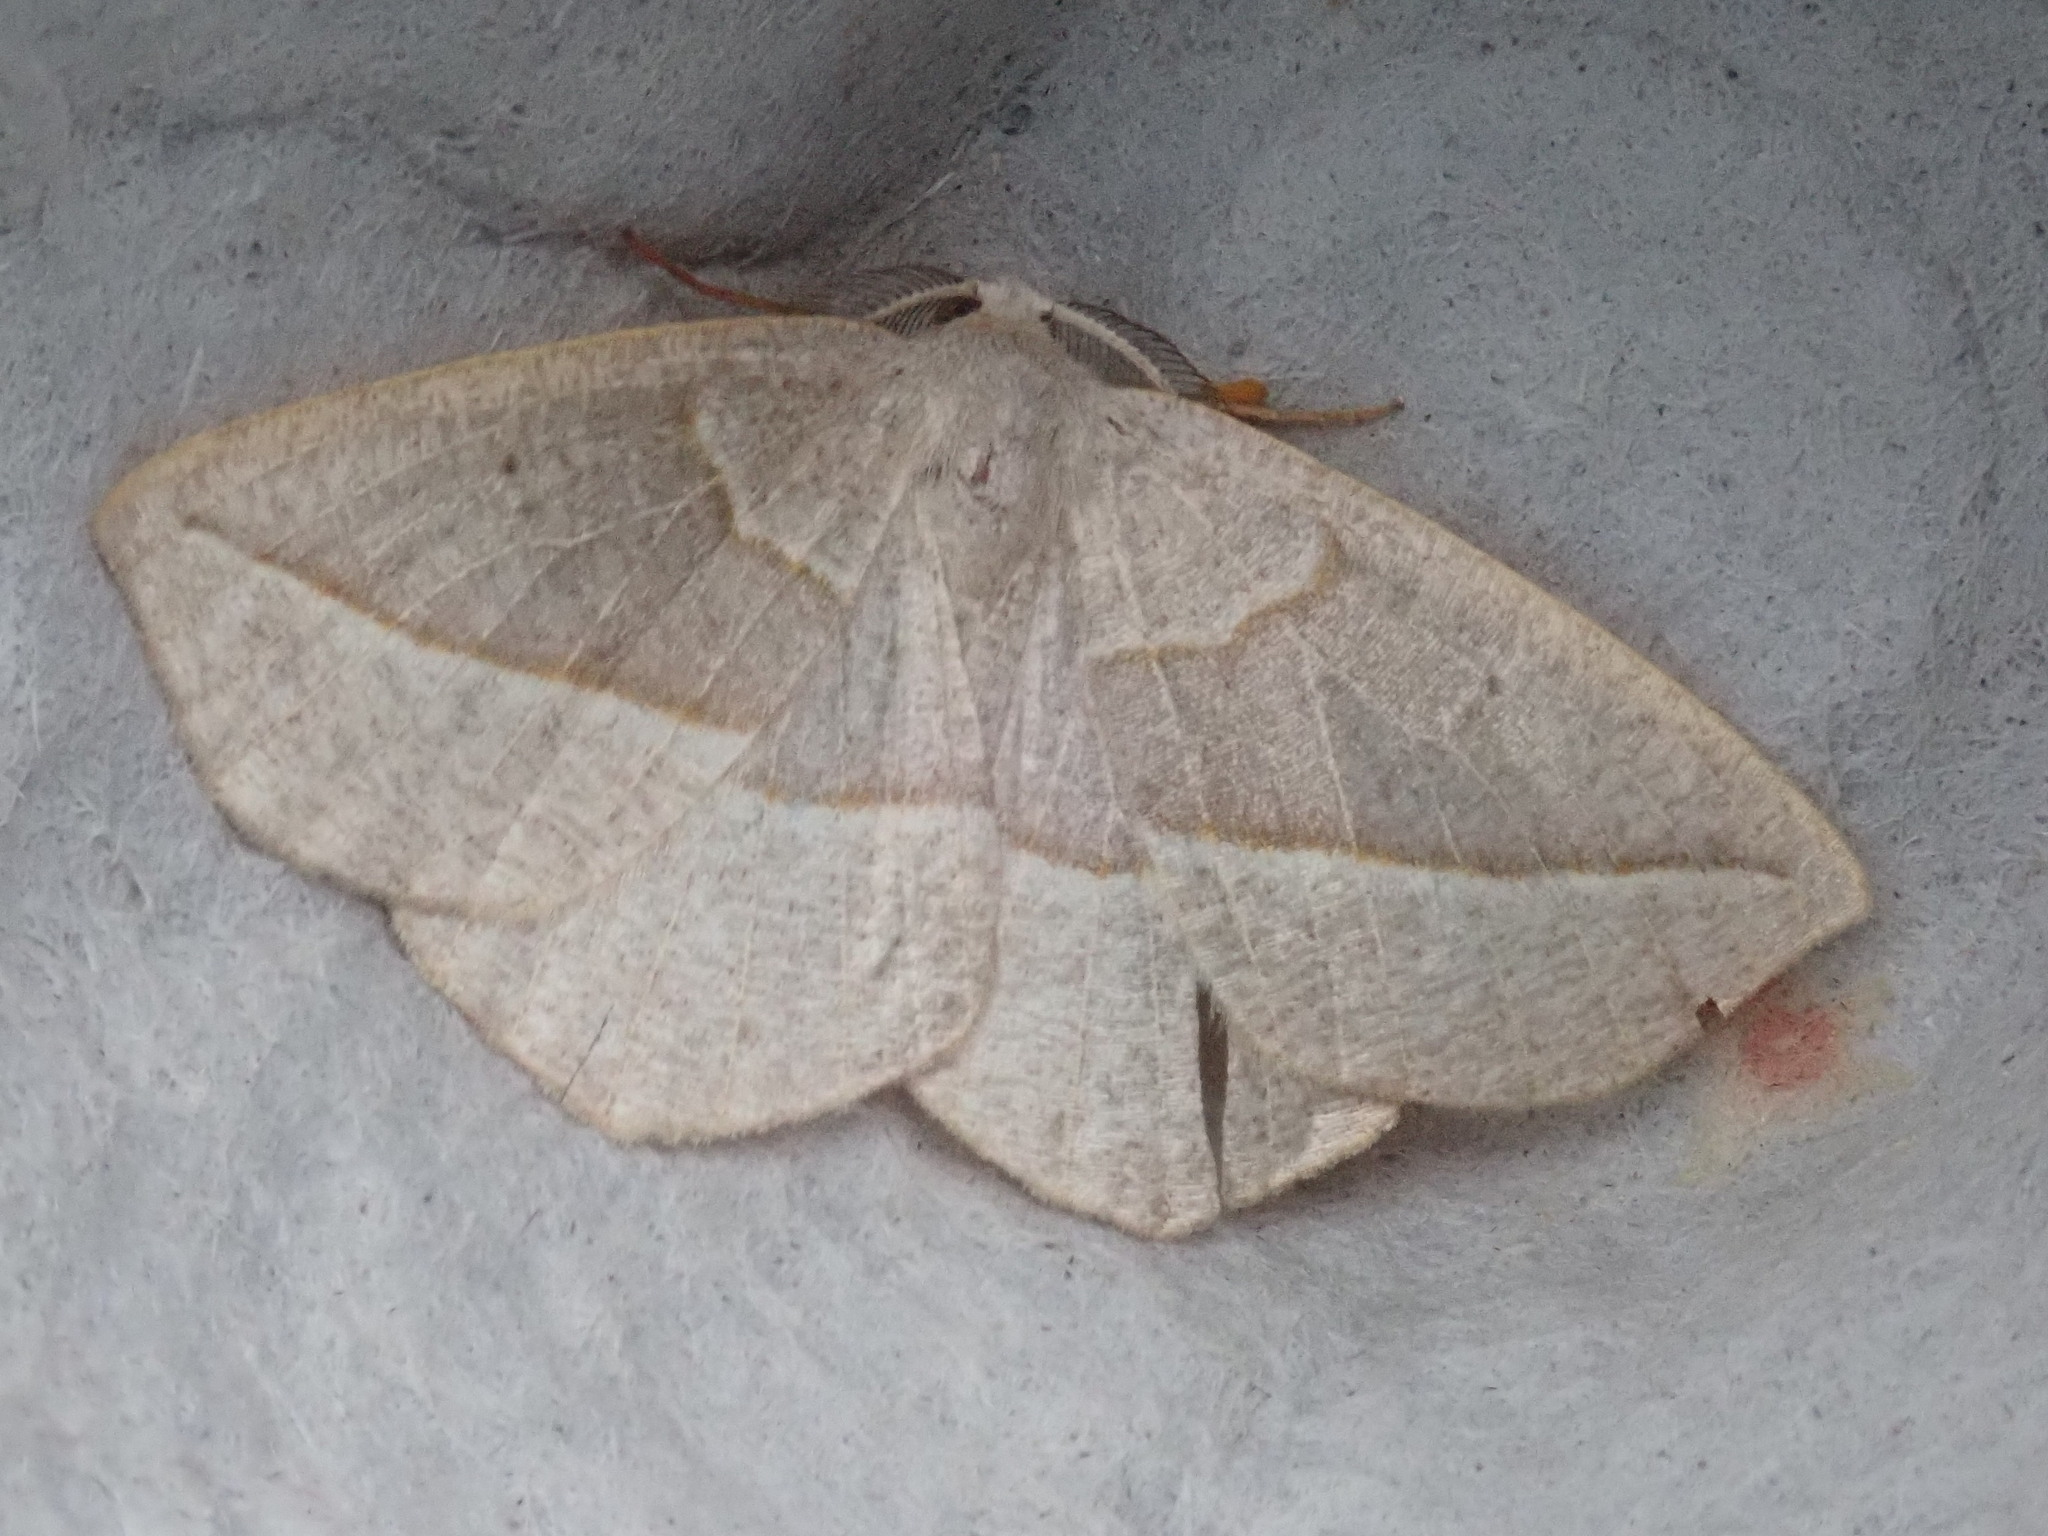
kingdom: Animalia
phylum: Arthropoda
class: Insecta
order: Lepidoptera
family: Geometridae
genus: Eusarca
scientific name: Eusarca confusaria
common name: Confused eusarca
